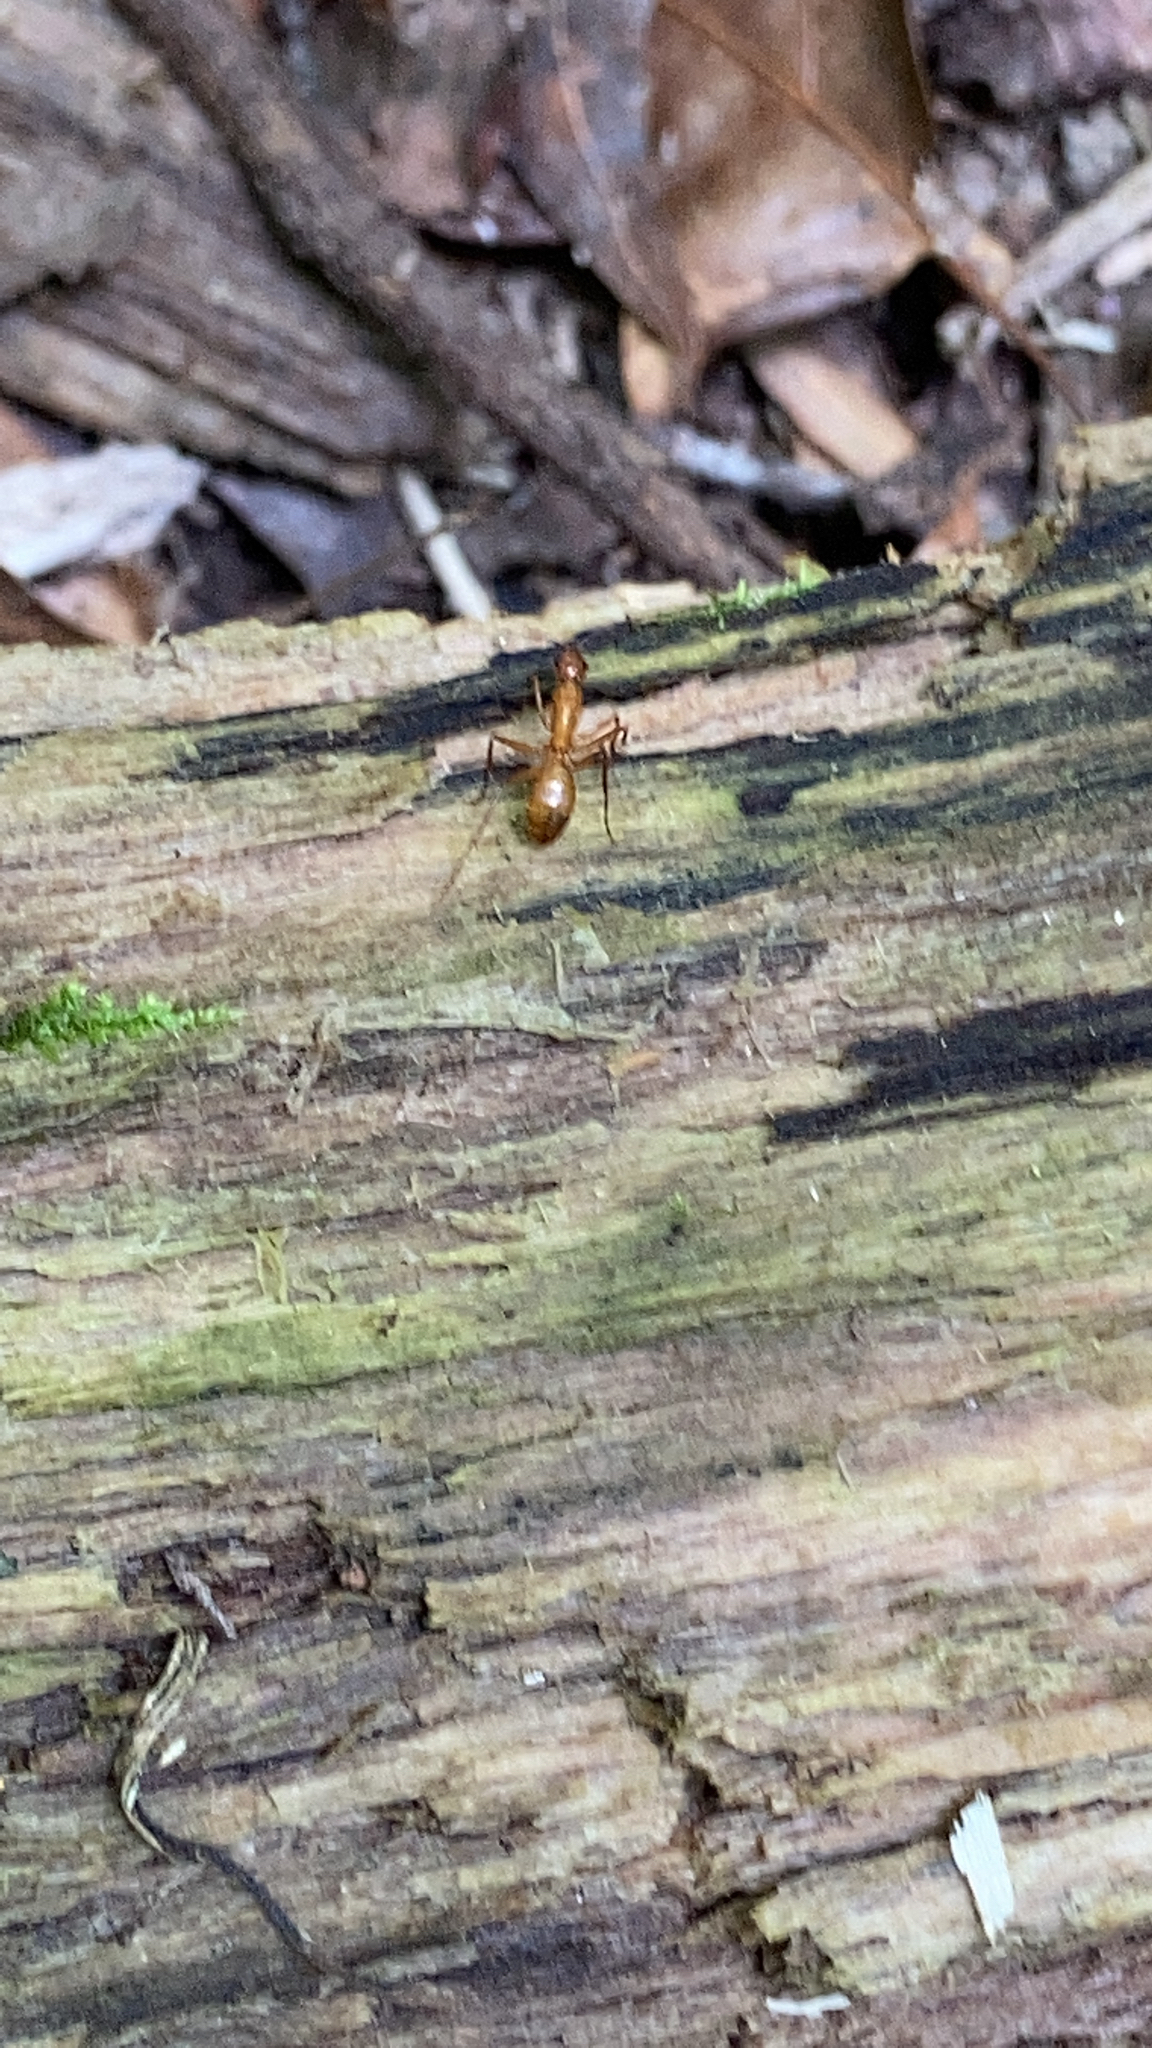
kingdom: Animalia
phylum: Arthropoda
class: Insecta
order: Hymenoptera
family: Formicidae
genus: Camponotus
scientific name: Camponotus castaneus
